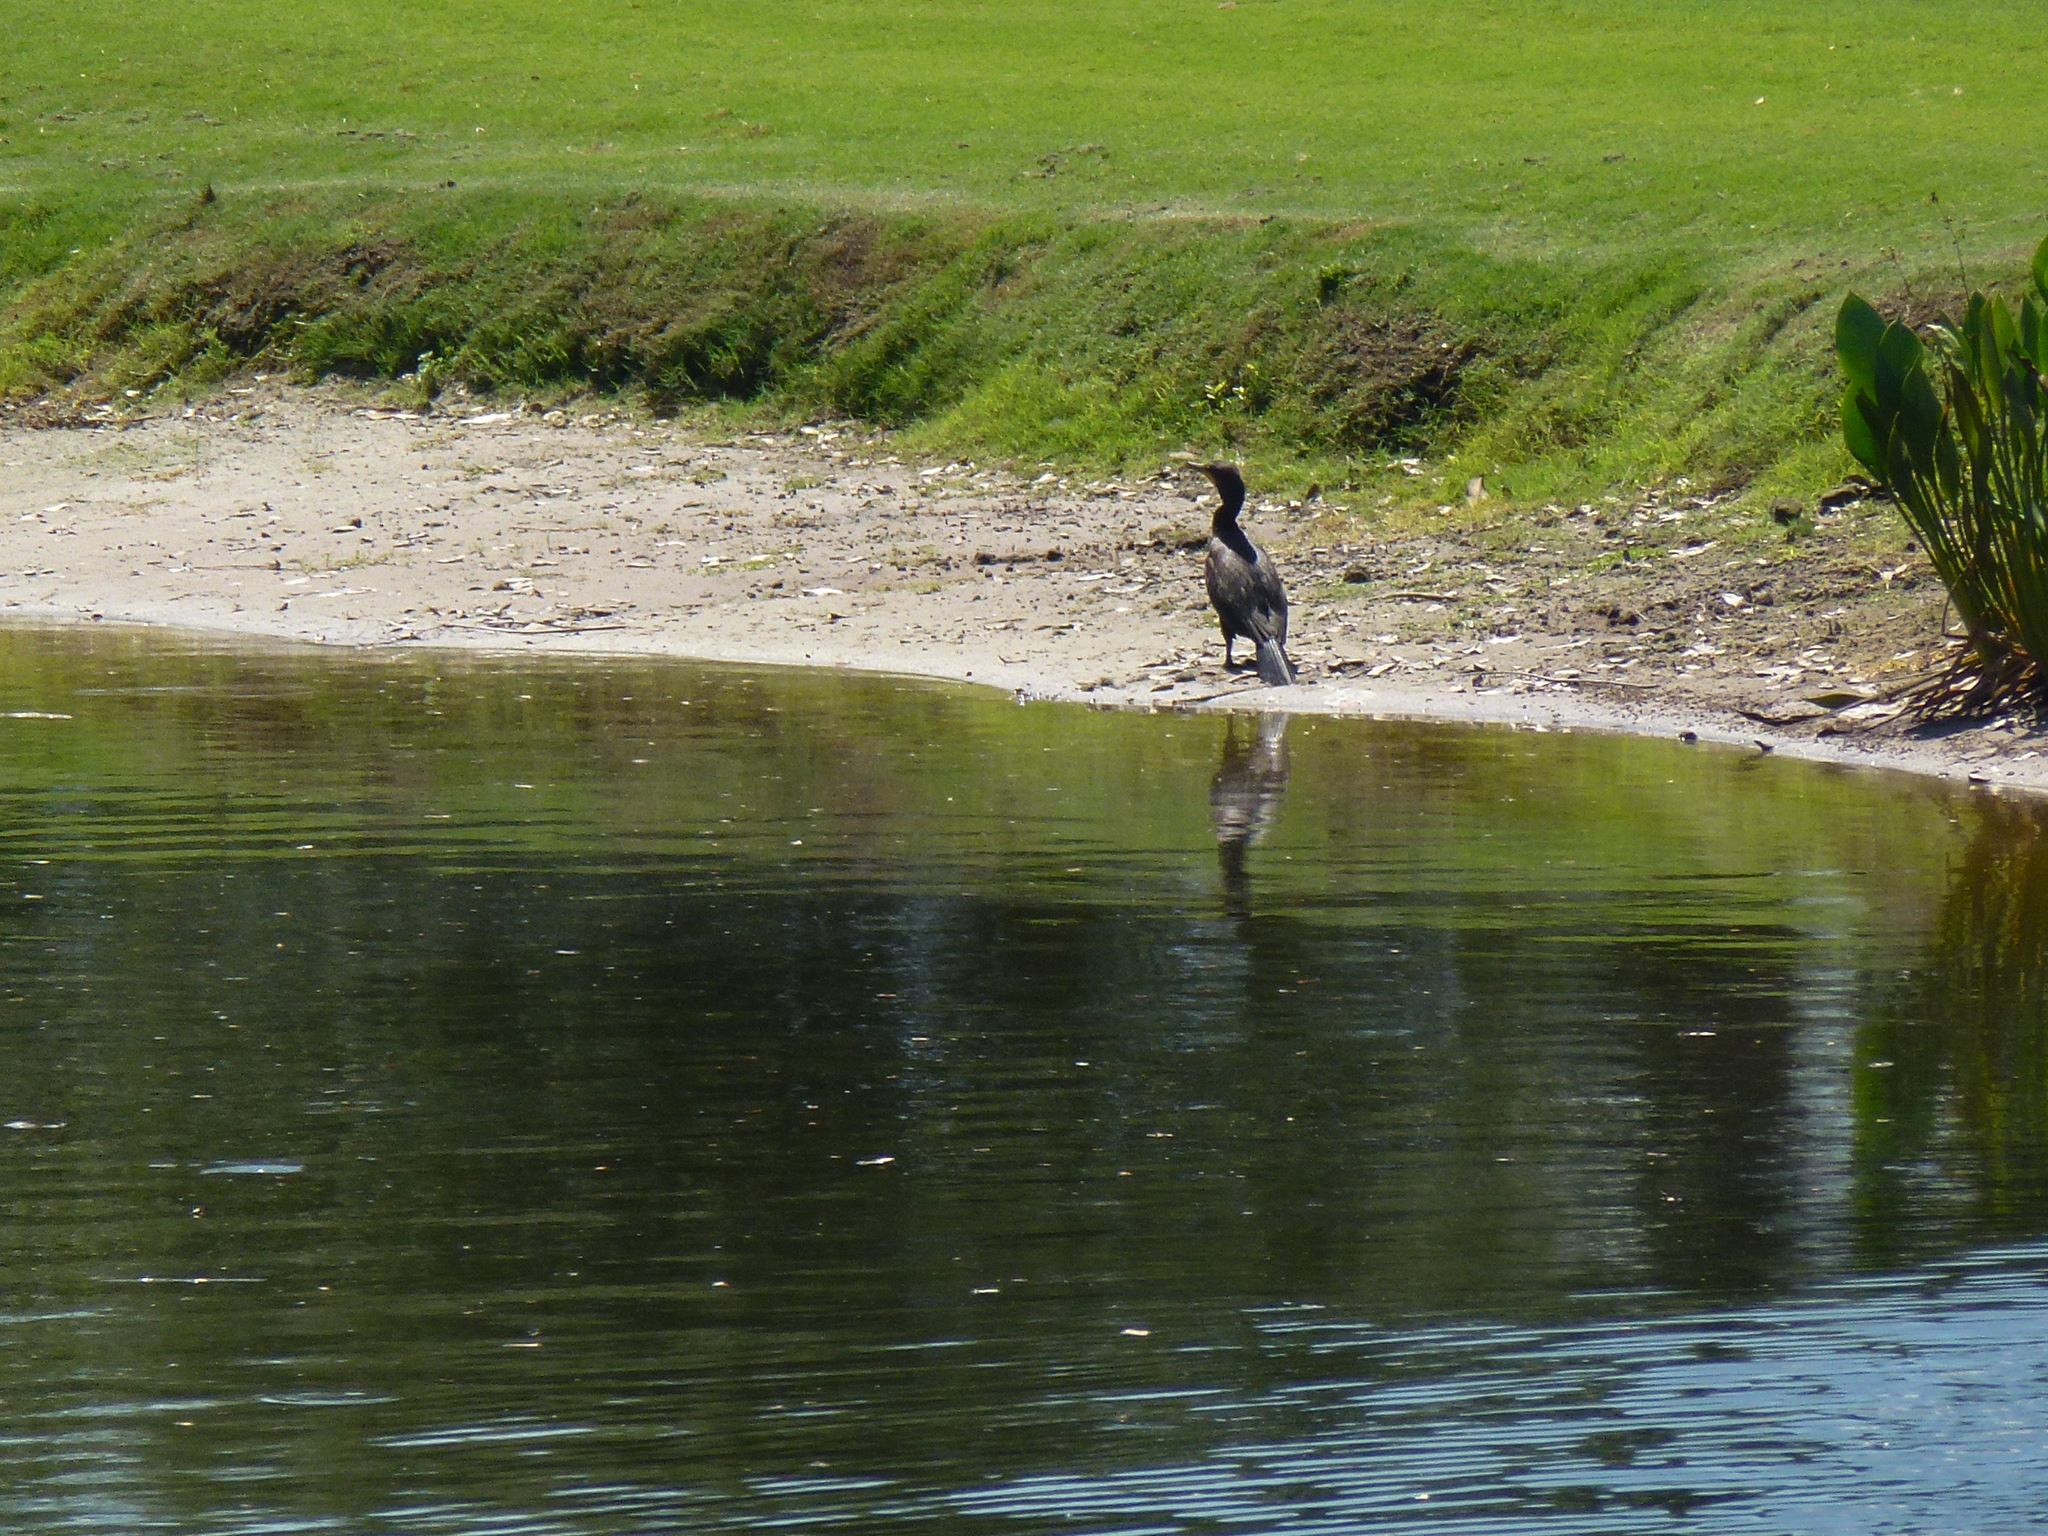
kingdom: Animalia
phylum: Chordata
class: Aves
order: Suliformes
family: Phalacrocoracidae
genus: Phalacrocorax
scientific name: Phalacrocorax auritus
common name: Double-crested cormorant
